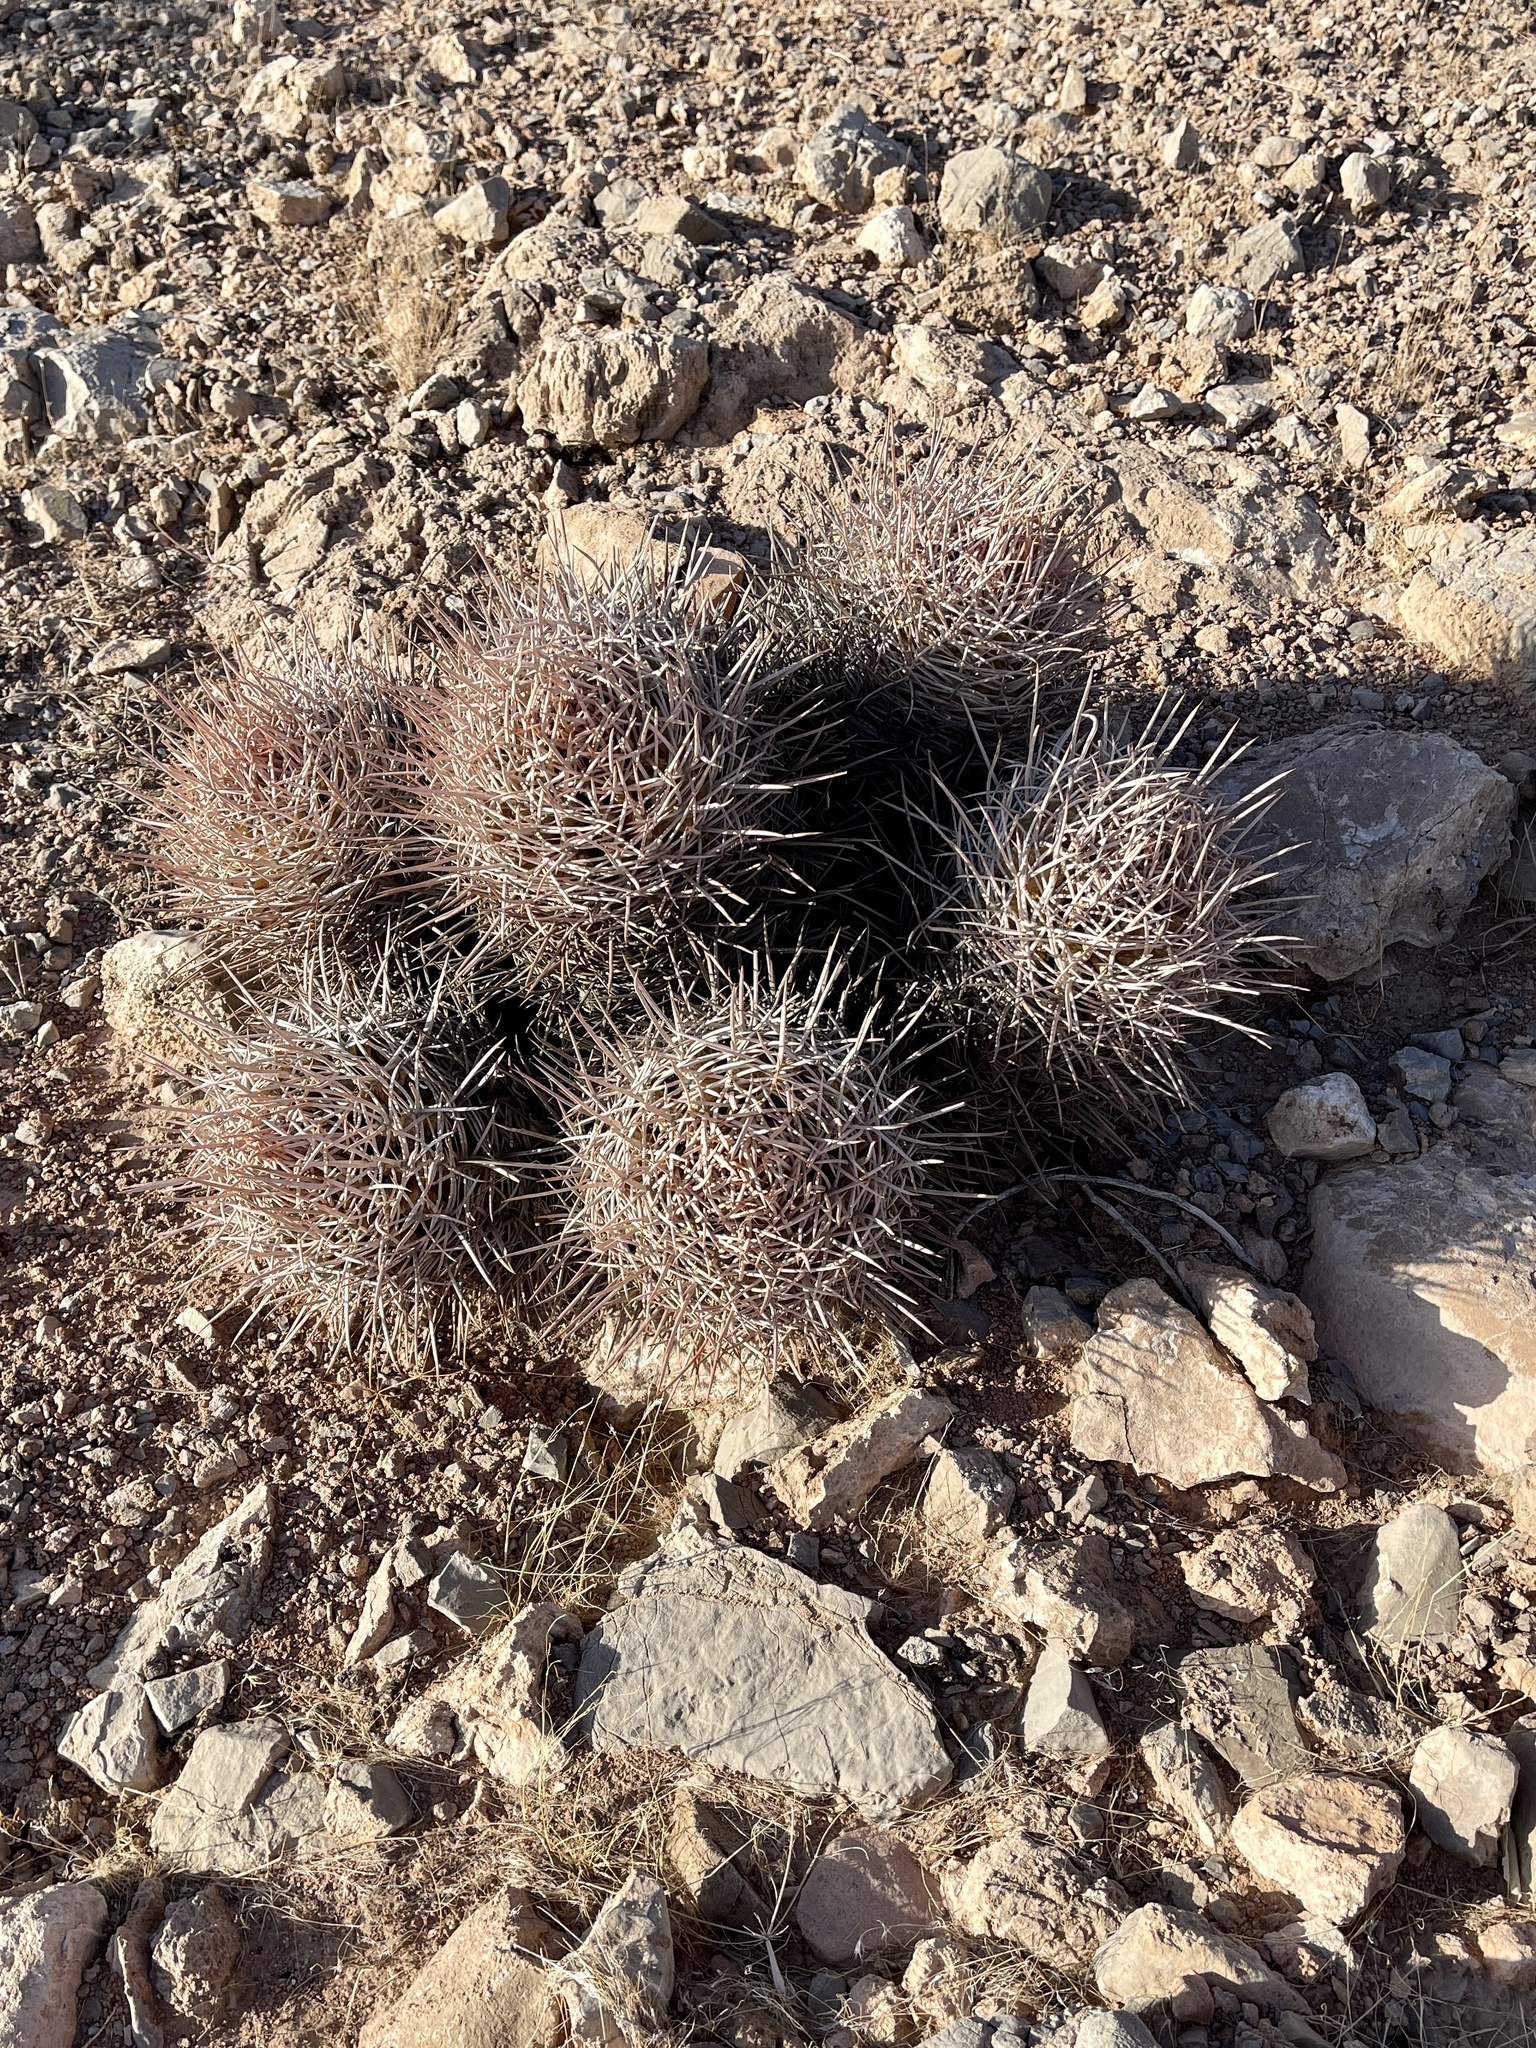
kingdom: Plantae
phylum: Tracheophyta
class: Magnoliopsida
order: Caryophyllales
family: Cactaceae
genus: Echinocactus
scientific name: Echinocactus polycephalus
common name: Cottontop cactus
